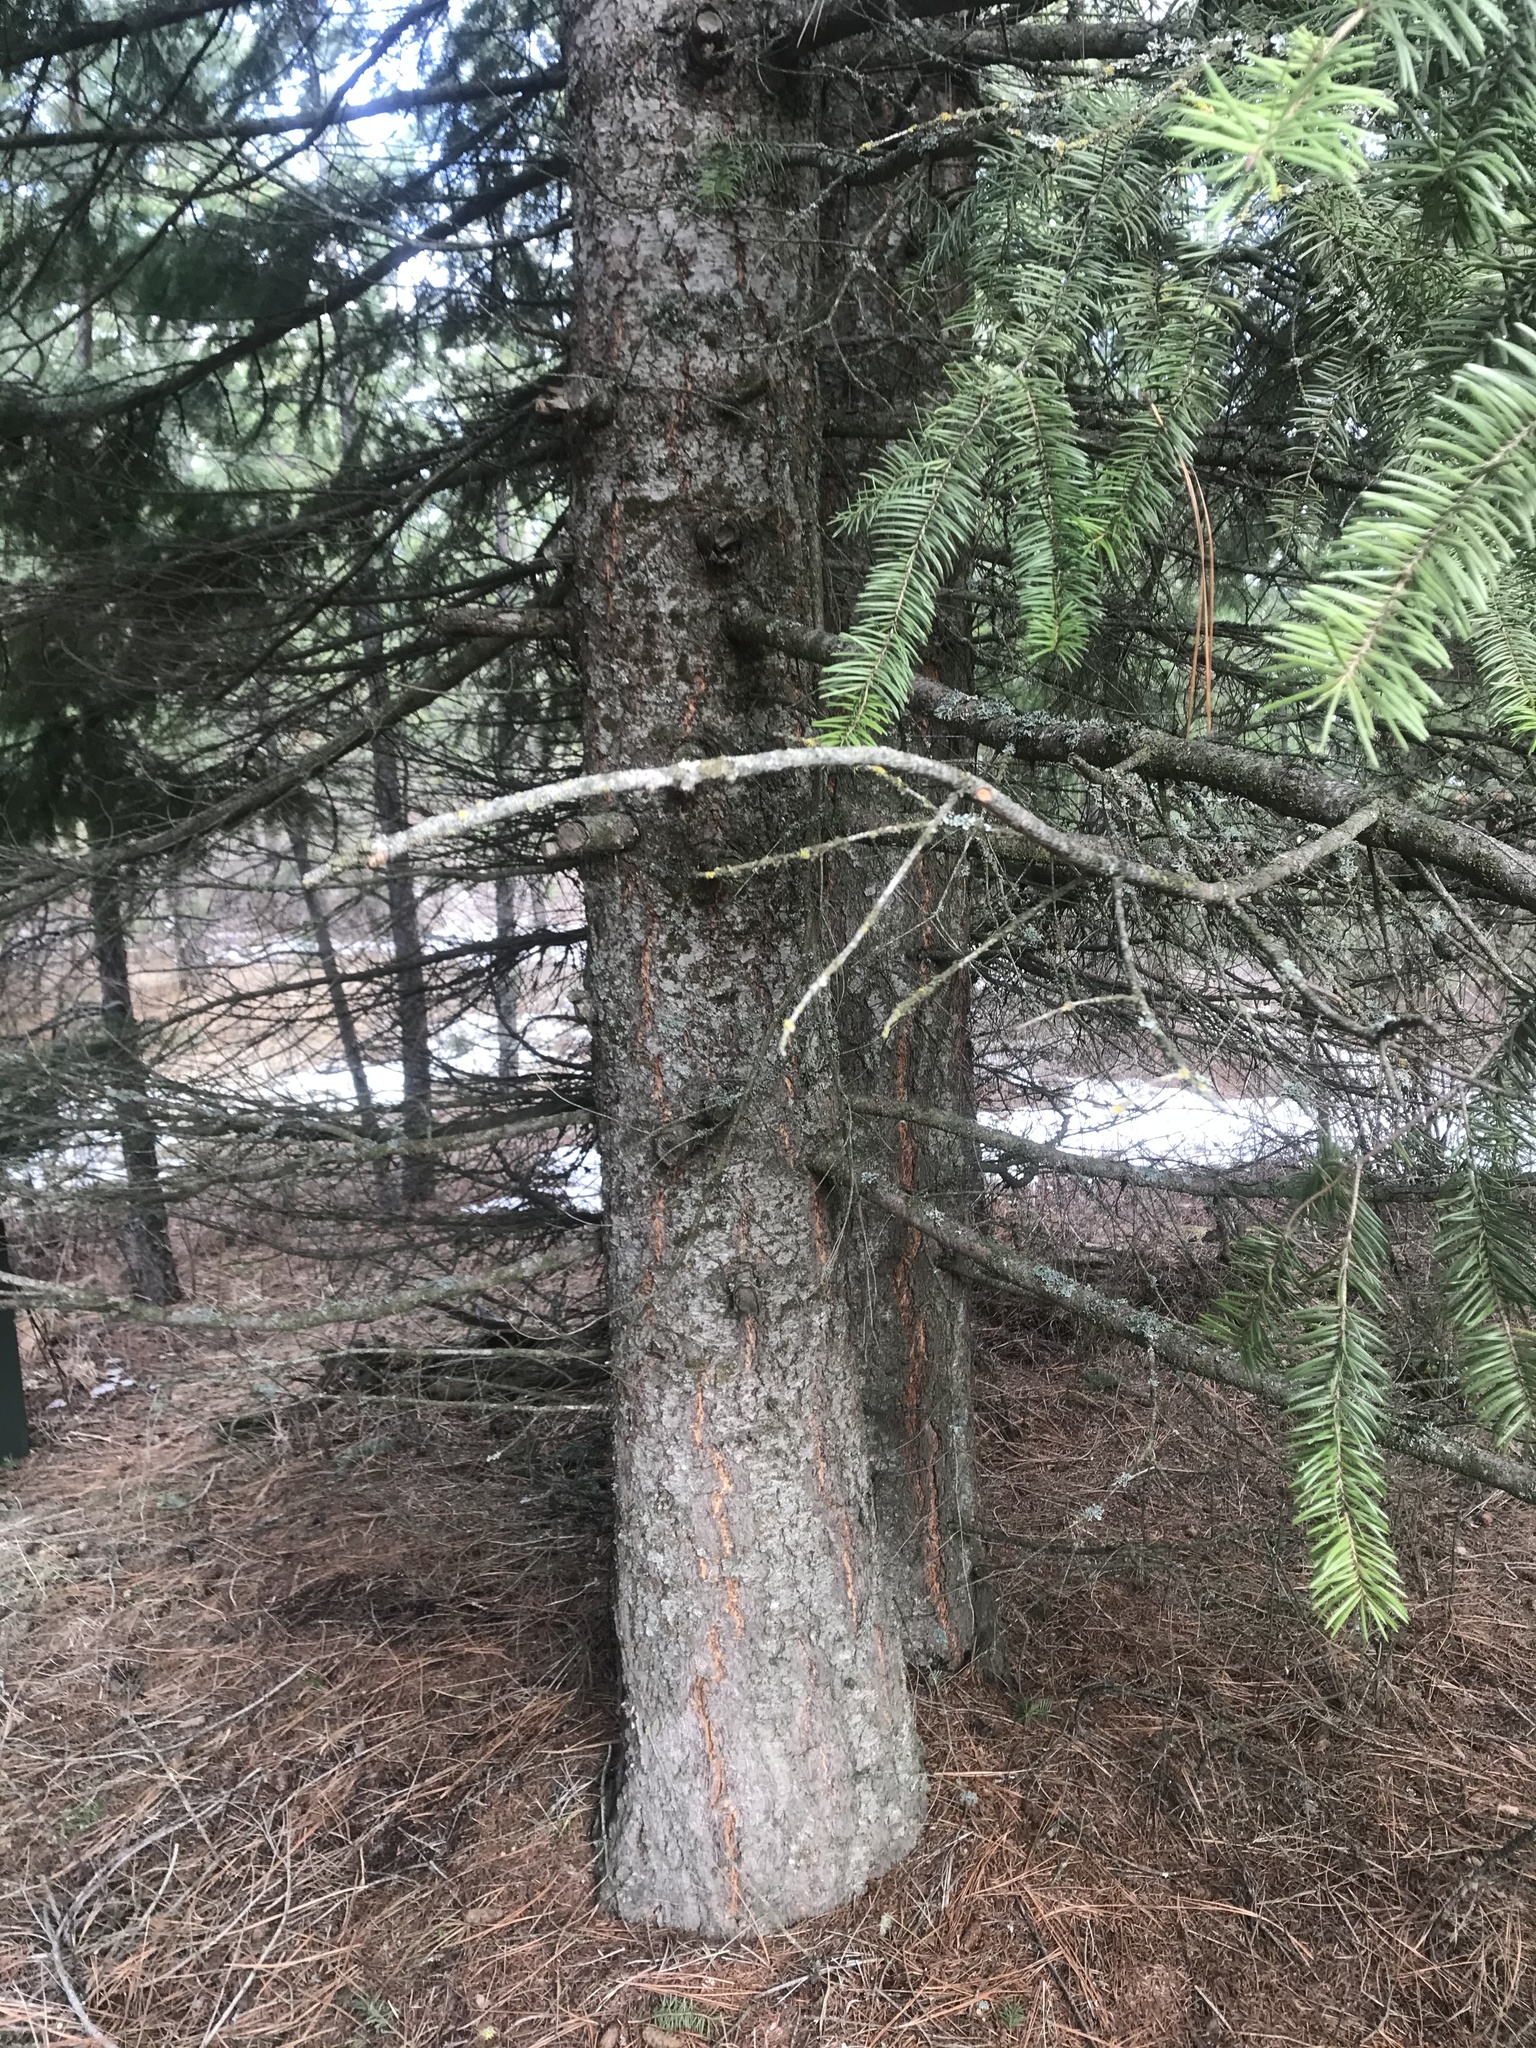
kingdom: Plantae
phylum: Tracheophyta
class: Pinopsida
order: Pinales
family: Pinaceae
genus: Pseudotsuga
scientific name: Pseudotsuga menziesii
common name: Douglas fir
